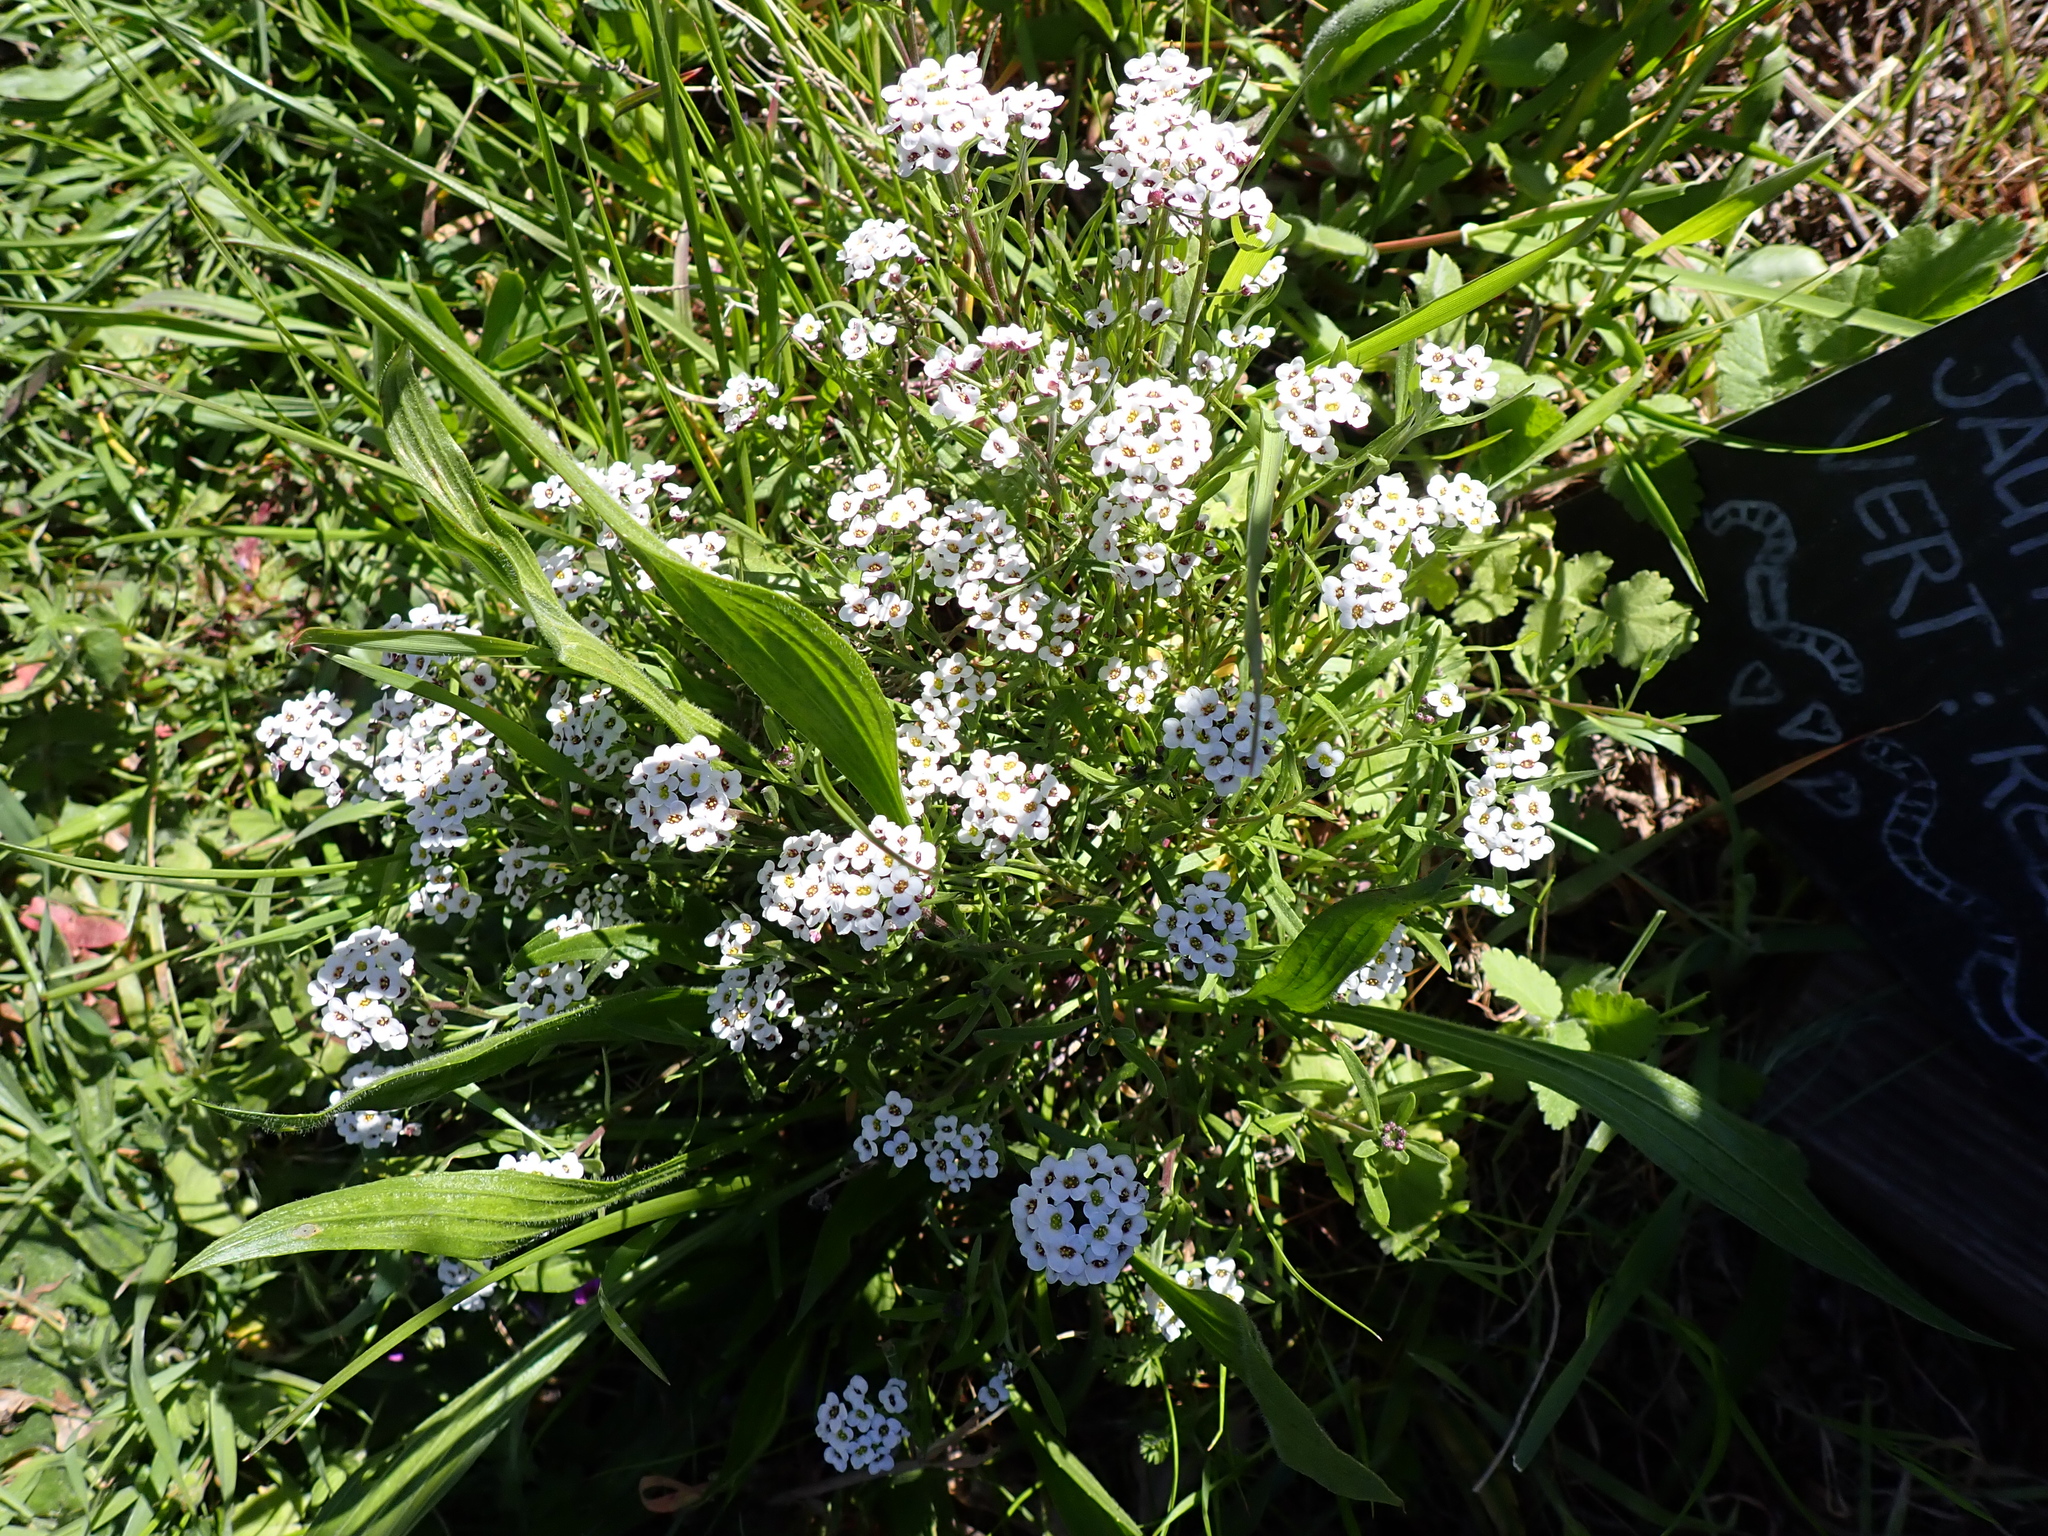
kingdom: Plantae
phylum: Tracheophyta
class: Magnoliopsida
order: Brassicales
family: Brassicaceae
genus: Lobularia
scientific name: Lobularia maritima
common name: Sweet alison
